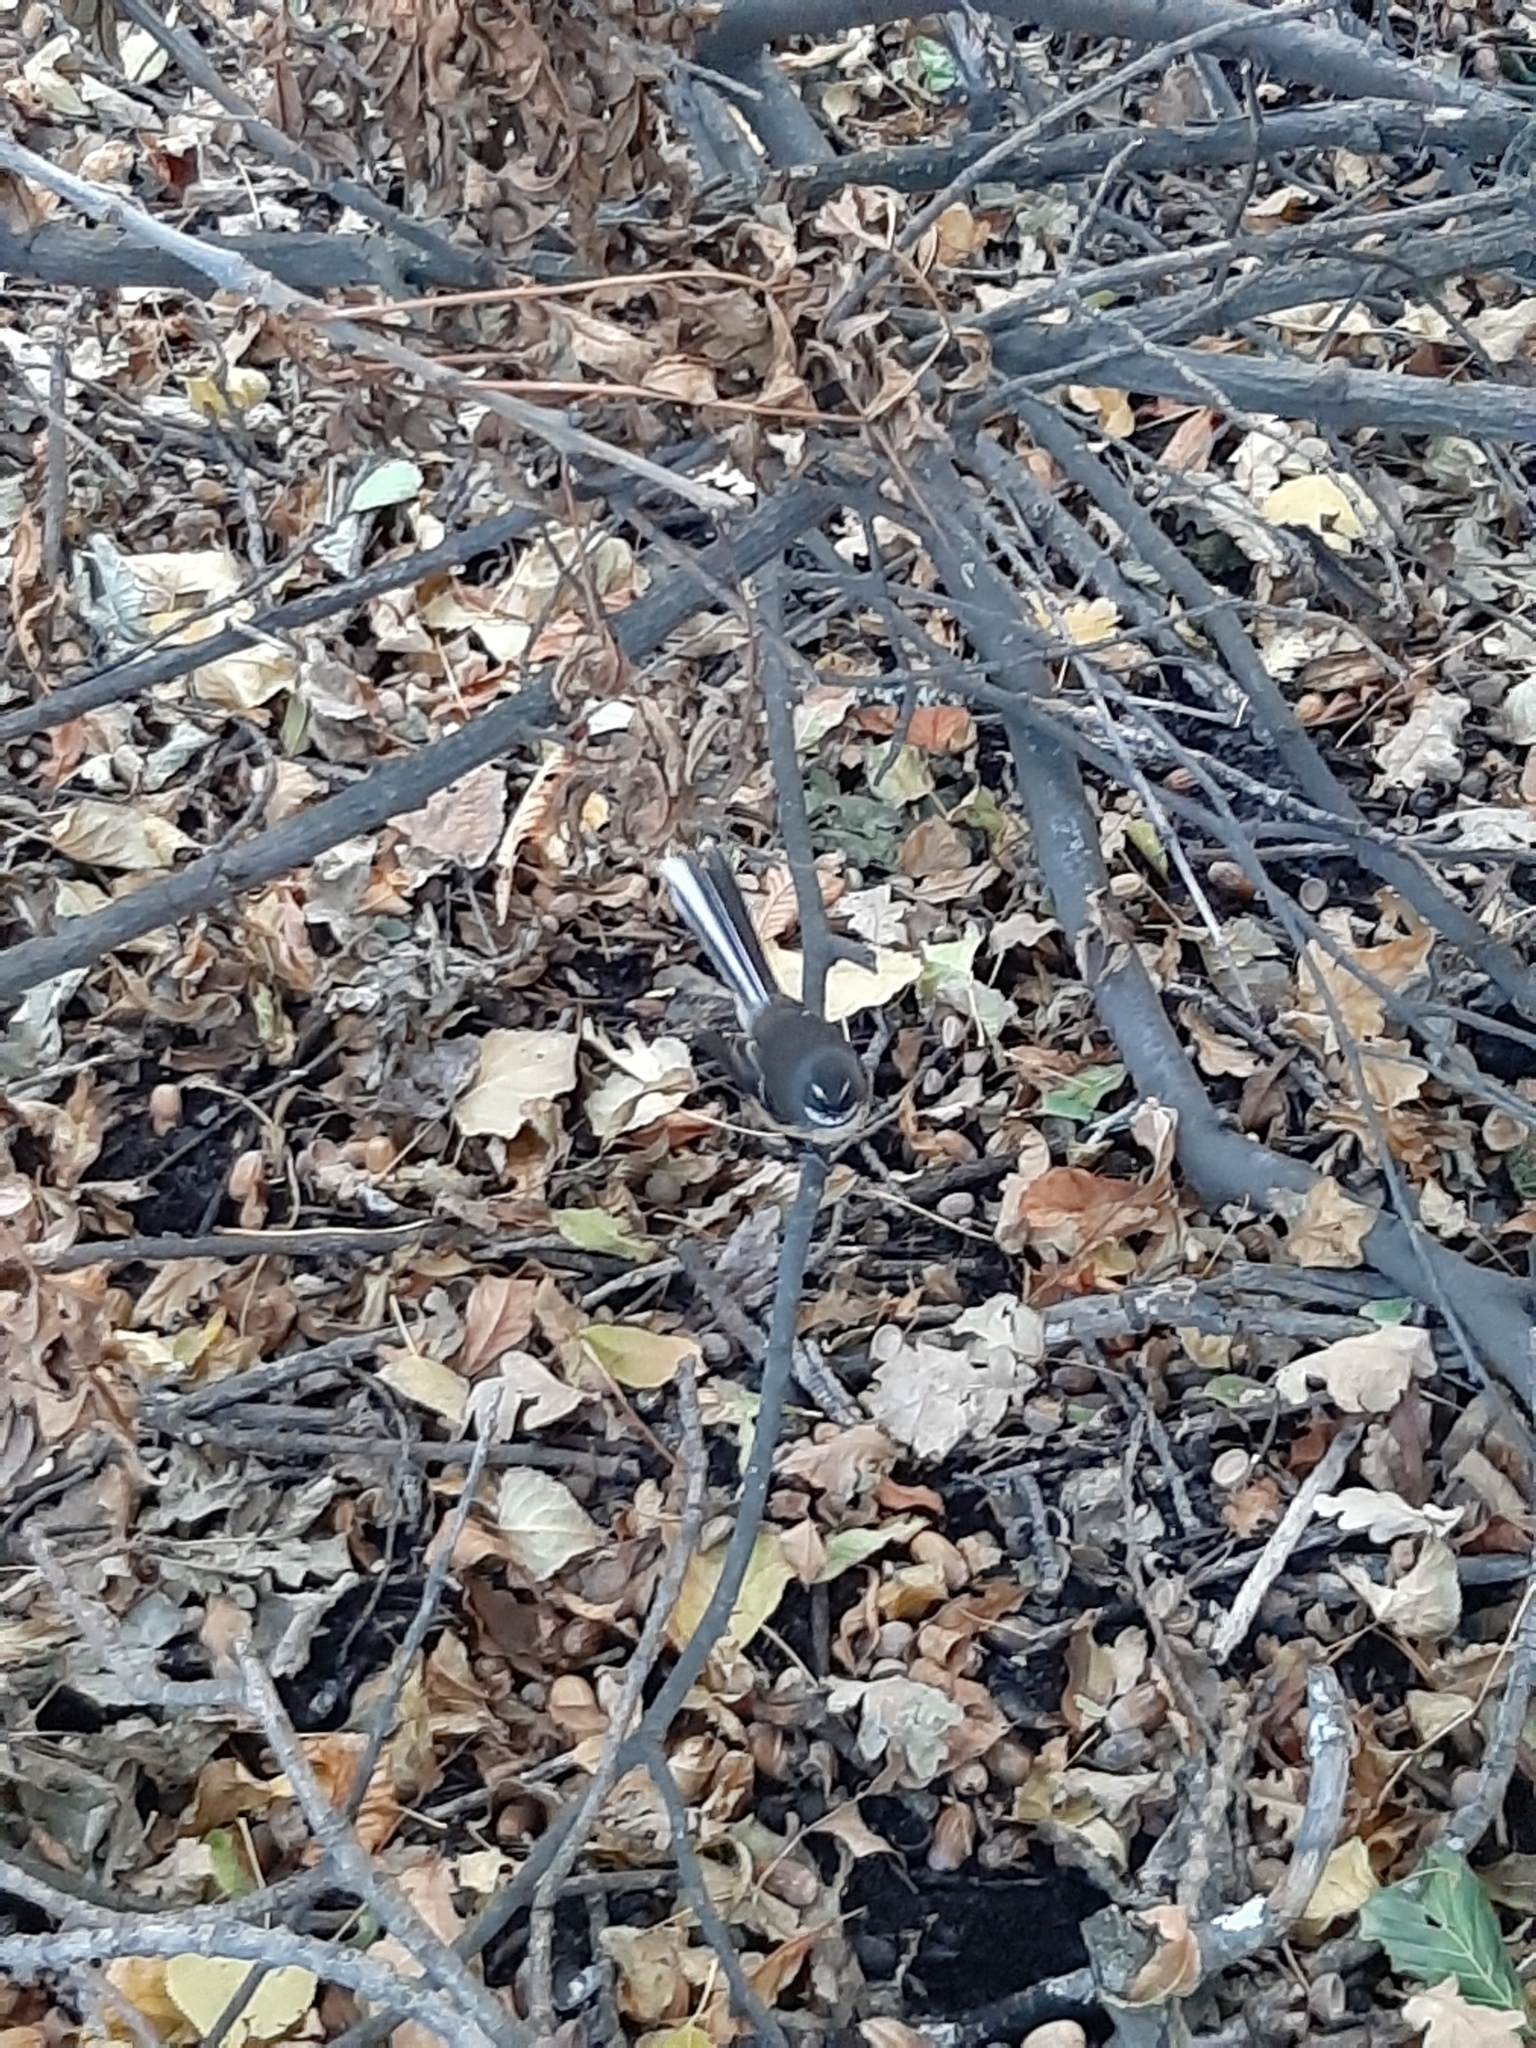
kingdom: Animalia
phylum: Chordata
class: Aves
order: Passeriformes
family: Rhipiduridae
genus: Rhipidura
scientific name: Rhipidura fuliginosa
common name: New zealand fantail
